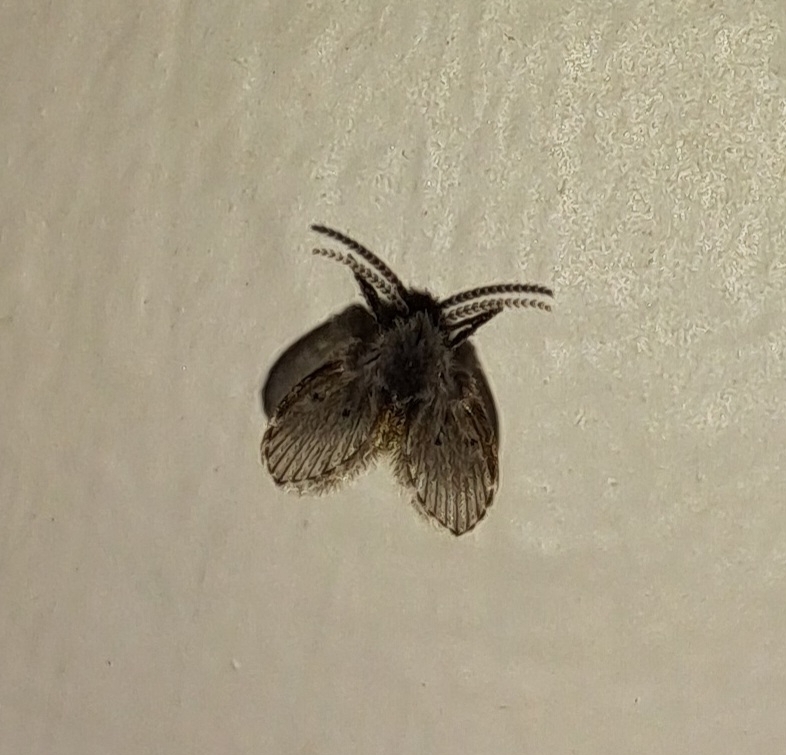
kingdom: Animalia
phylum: Arthropoda
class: Insecta
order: Diptera
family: Psychodidae
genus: Clogmia
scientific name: Clogmia albipunctatus
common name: White-spotted moth fly
